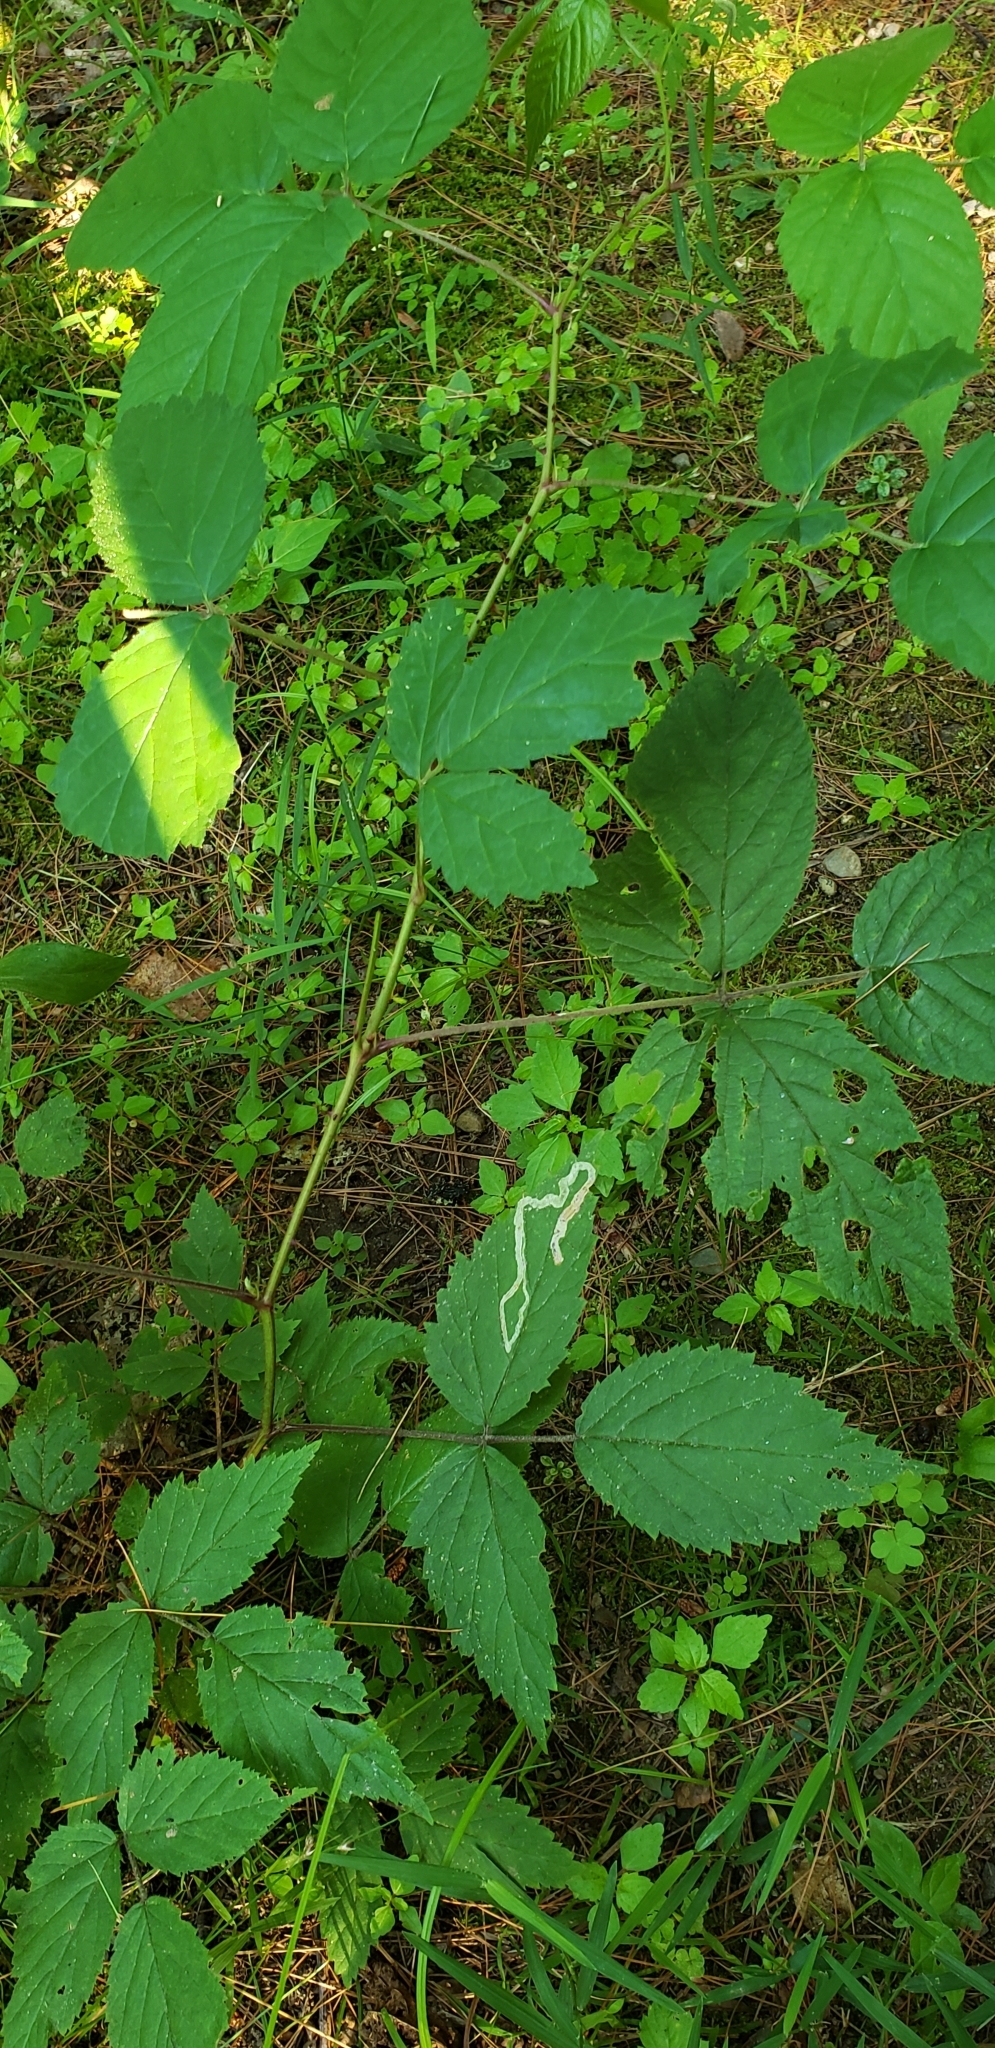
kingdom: Animalia
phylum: Arthropoda
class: Insecta
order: Diptera
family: Agromyzidae
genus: Agromyza
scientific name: Agromyza vockerothi
